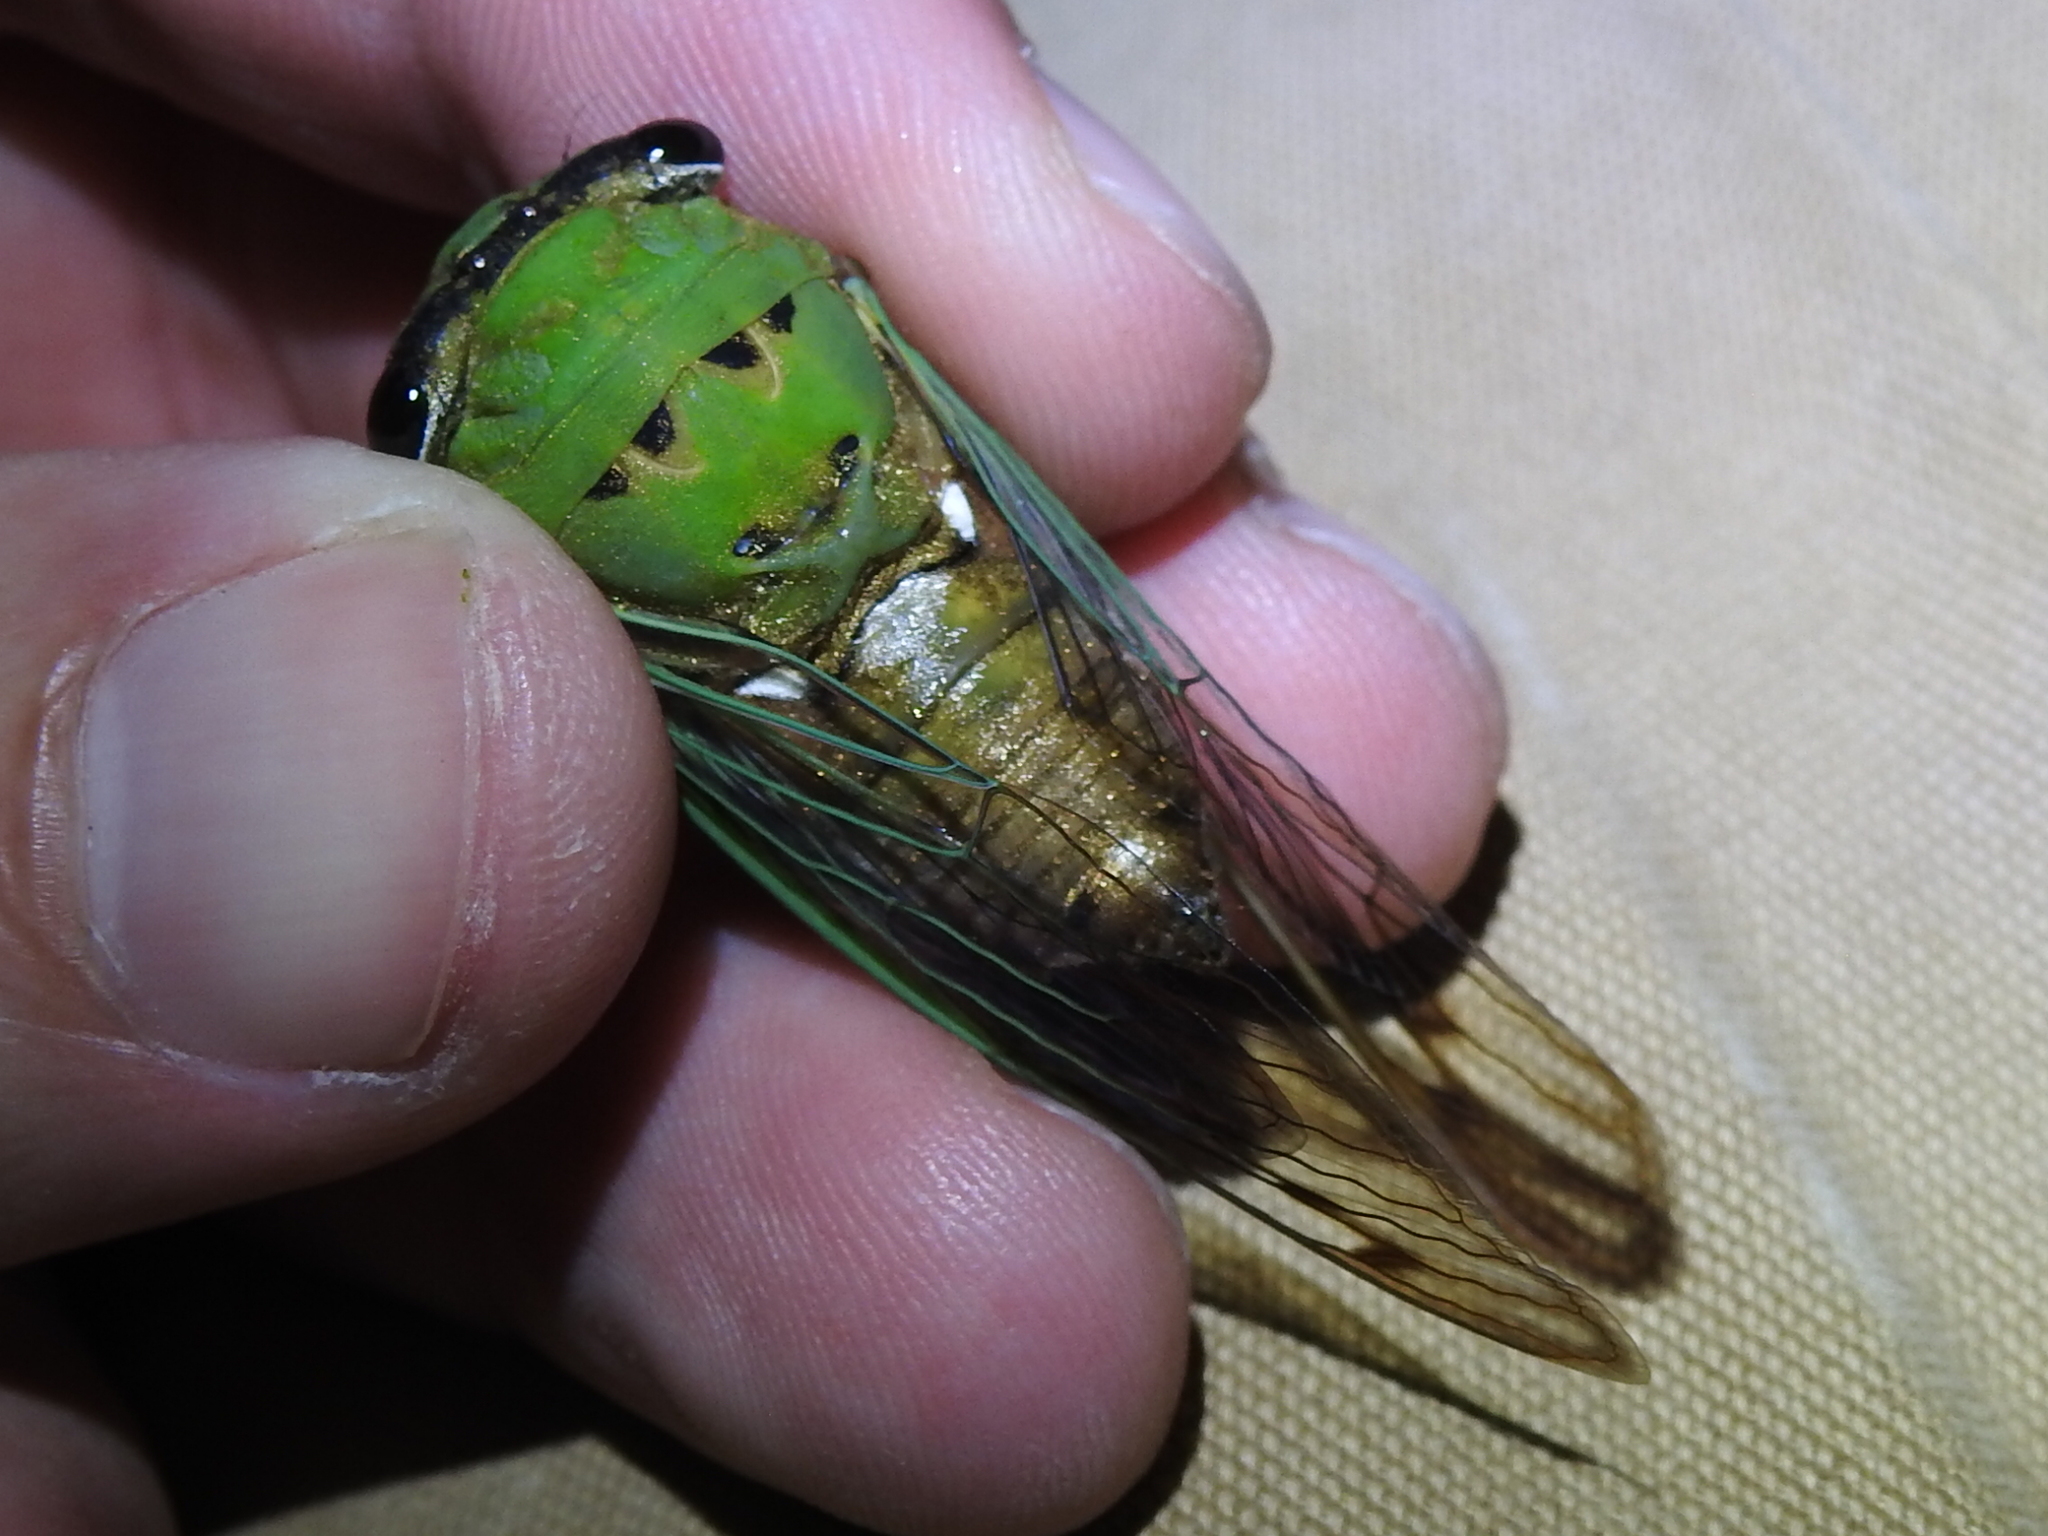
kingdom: Animalia
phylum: Arthropoda
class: Insecta
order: Hemiptera
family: Cicadidae
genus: Neotibicen
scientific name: Neotibicen superbus
